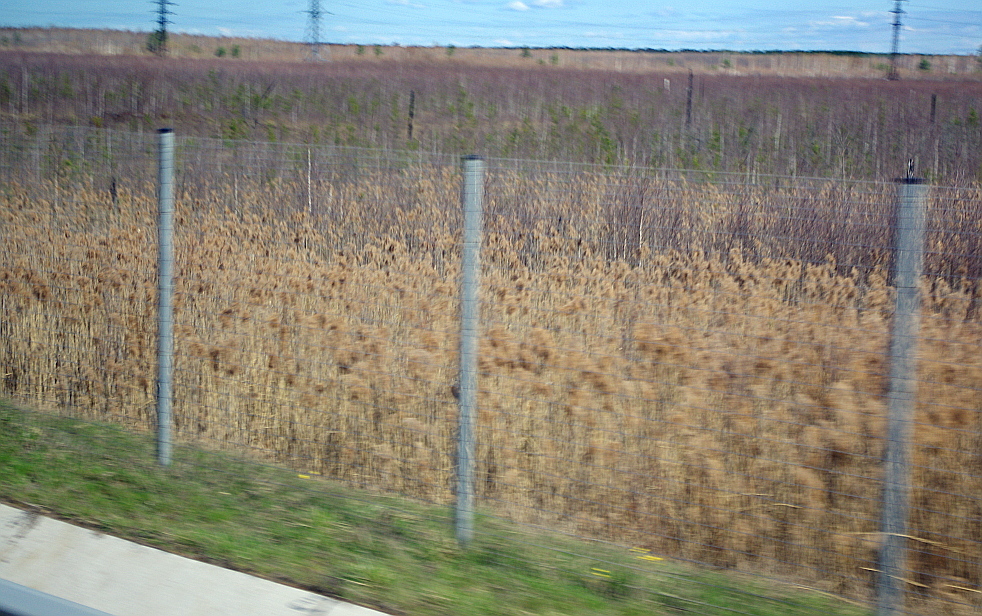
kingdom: Plantae
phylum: Tracheophyta
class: Liliopsida
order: Poales
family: Poaceae
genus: Phragmites
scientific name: Phragmites australis
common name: Common reed
